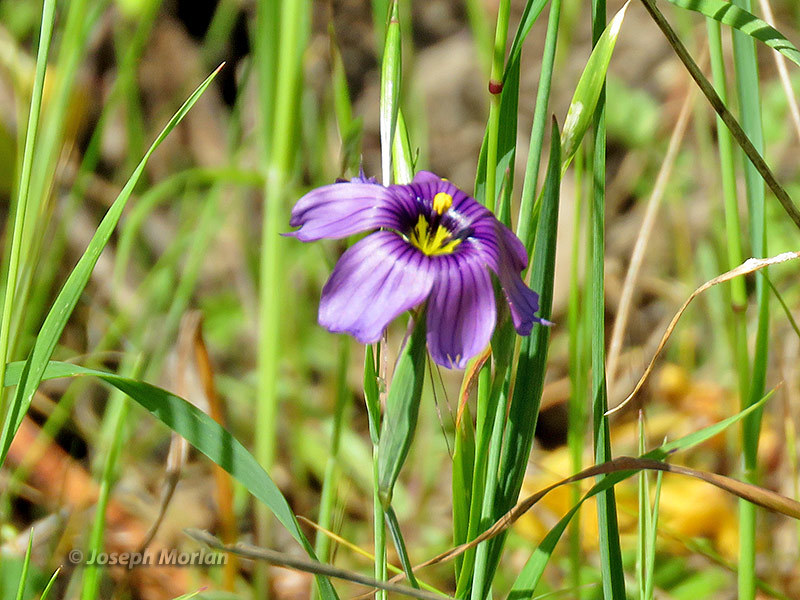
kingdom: Plantae
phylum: Tracheophyta
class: Liliopsida
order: Asparagales
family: Iridaceae
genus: Sisyrinchium
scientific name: Sisyrinchium bellum
